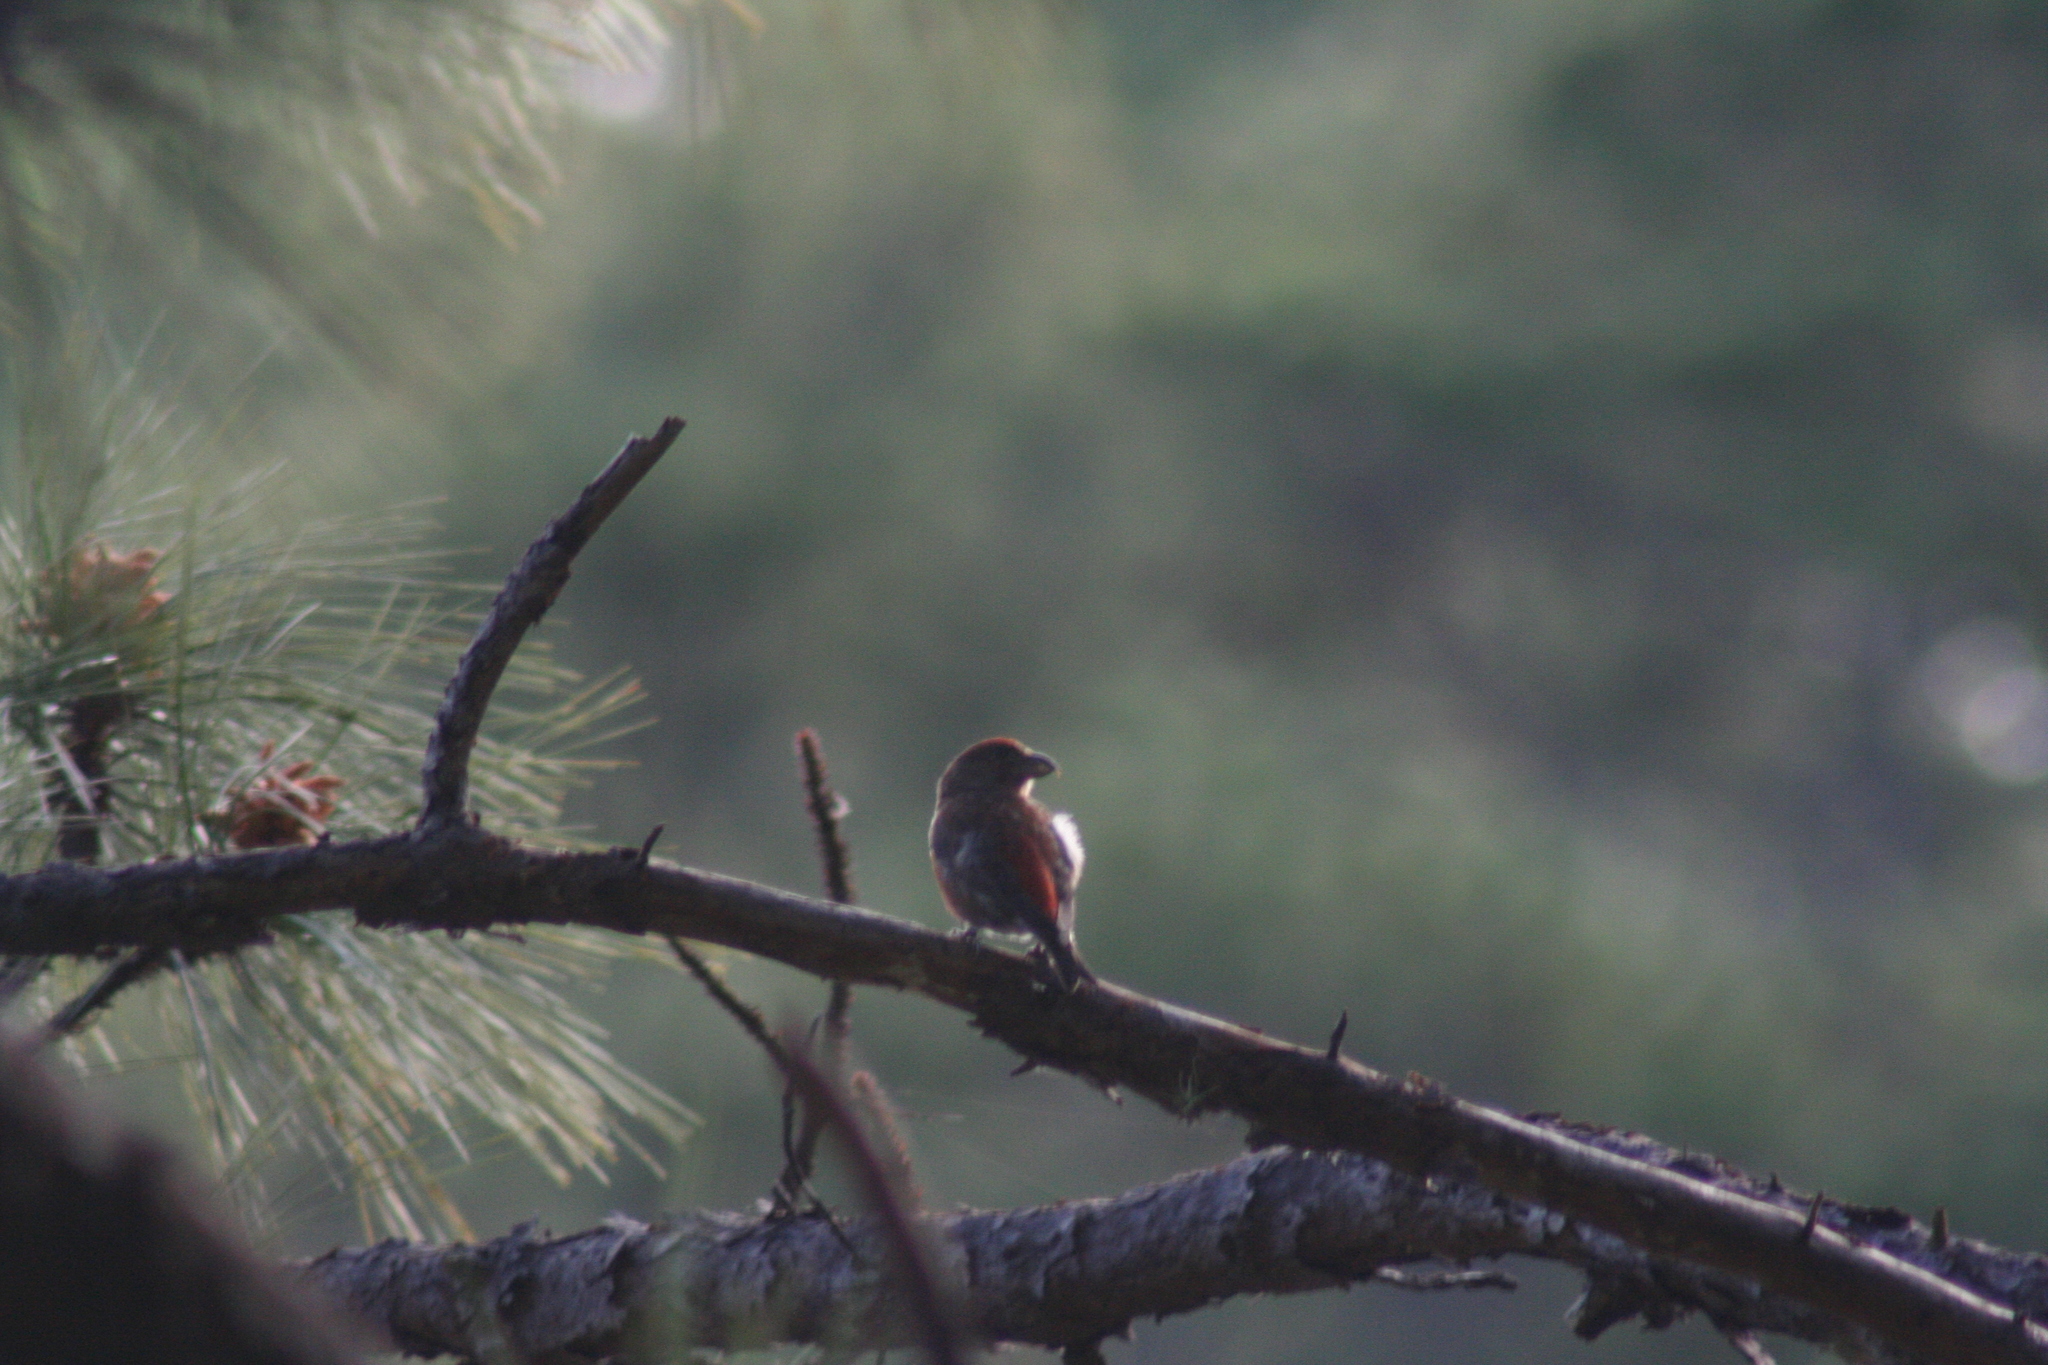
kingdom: Animalia
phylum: Chordata
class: Aves
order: Passeriformes
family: Fringillidae
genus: Loxia
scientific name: Loxia curvirostra
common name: Red crossbill
